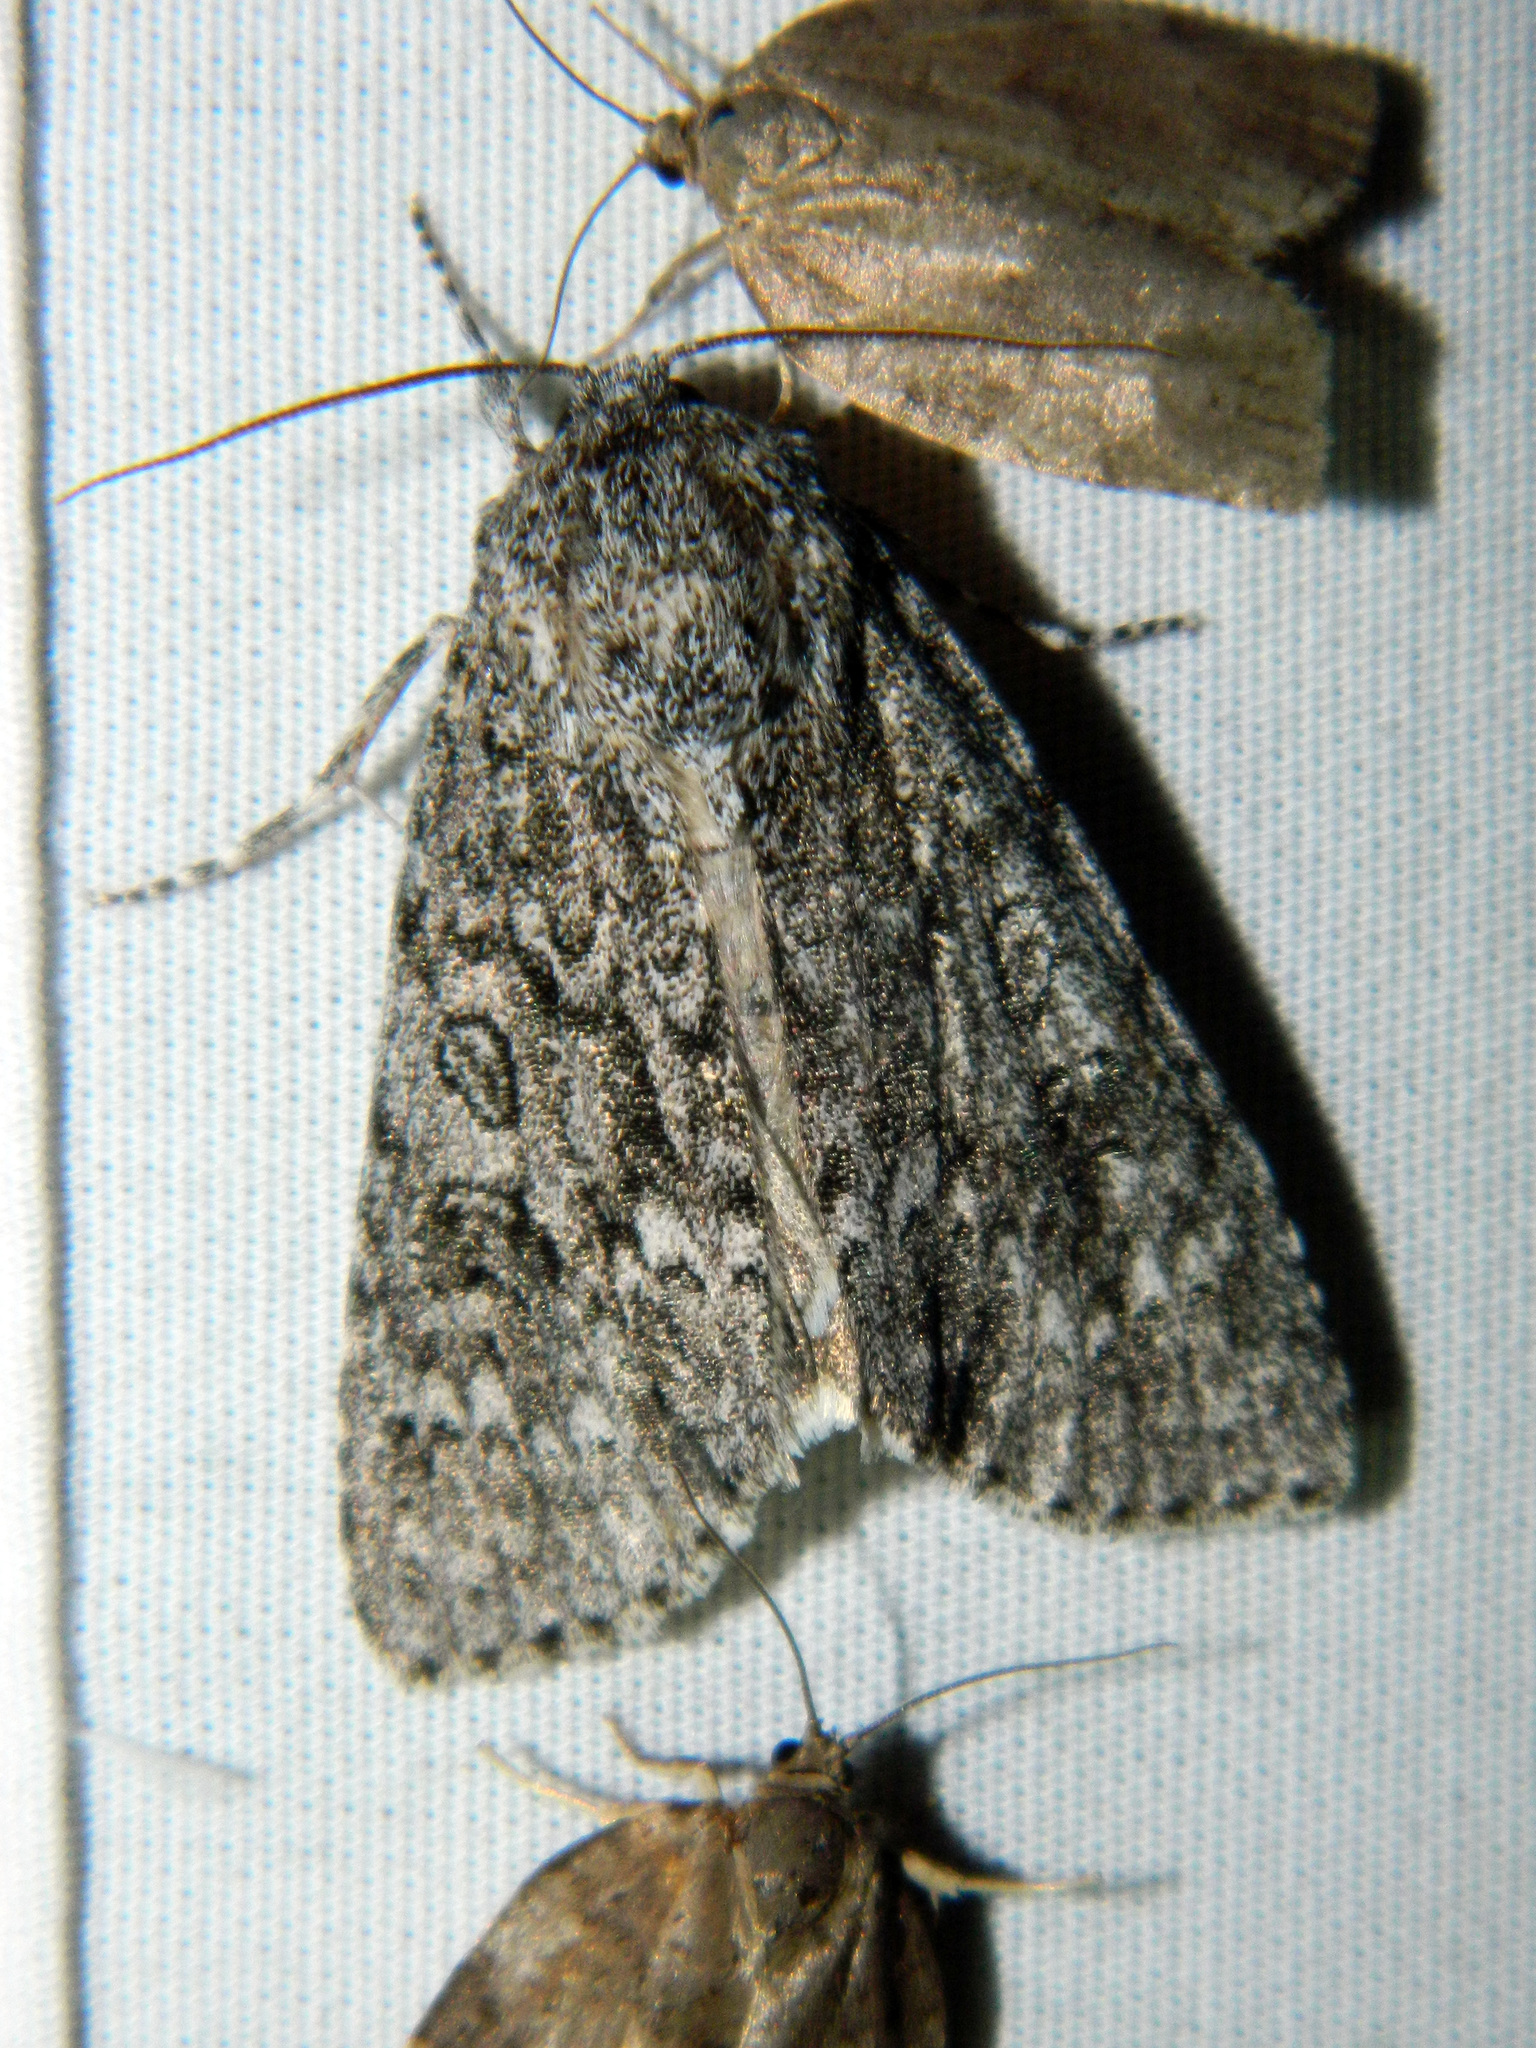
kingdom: Animalia
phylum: Arthropoda
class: Insecta
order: Lepidoptera
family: Noctuidae
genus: Acronicta
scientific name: Acronicta impleta
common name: Powdered dagger
